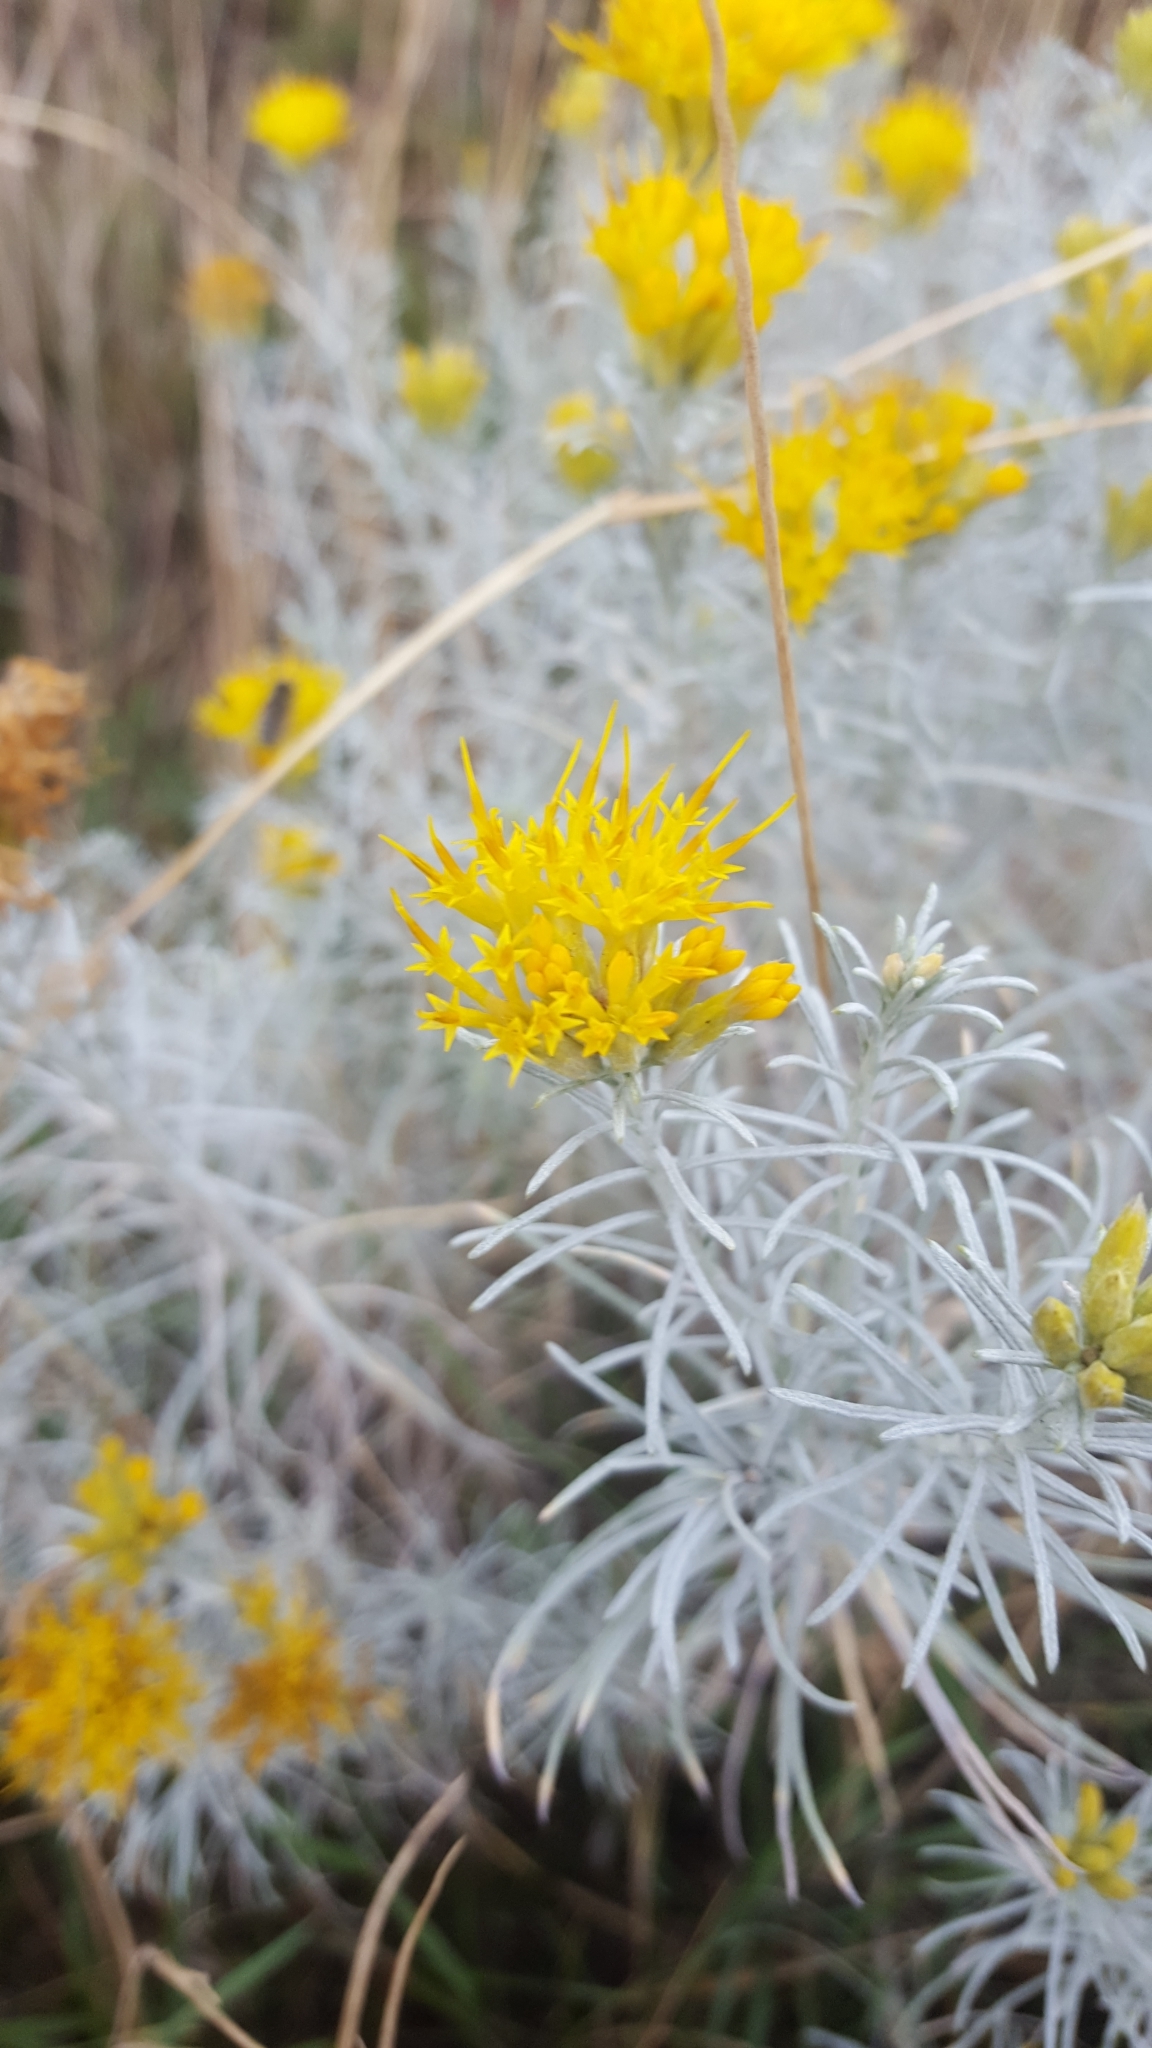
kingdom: Plantae
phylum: Tracheophyta
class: Magnoliopsida
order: Asterales
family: Asteraceae
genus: Ericameria
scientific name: Ericameria nauseosa
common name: Rubber rabbitbrush
